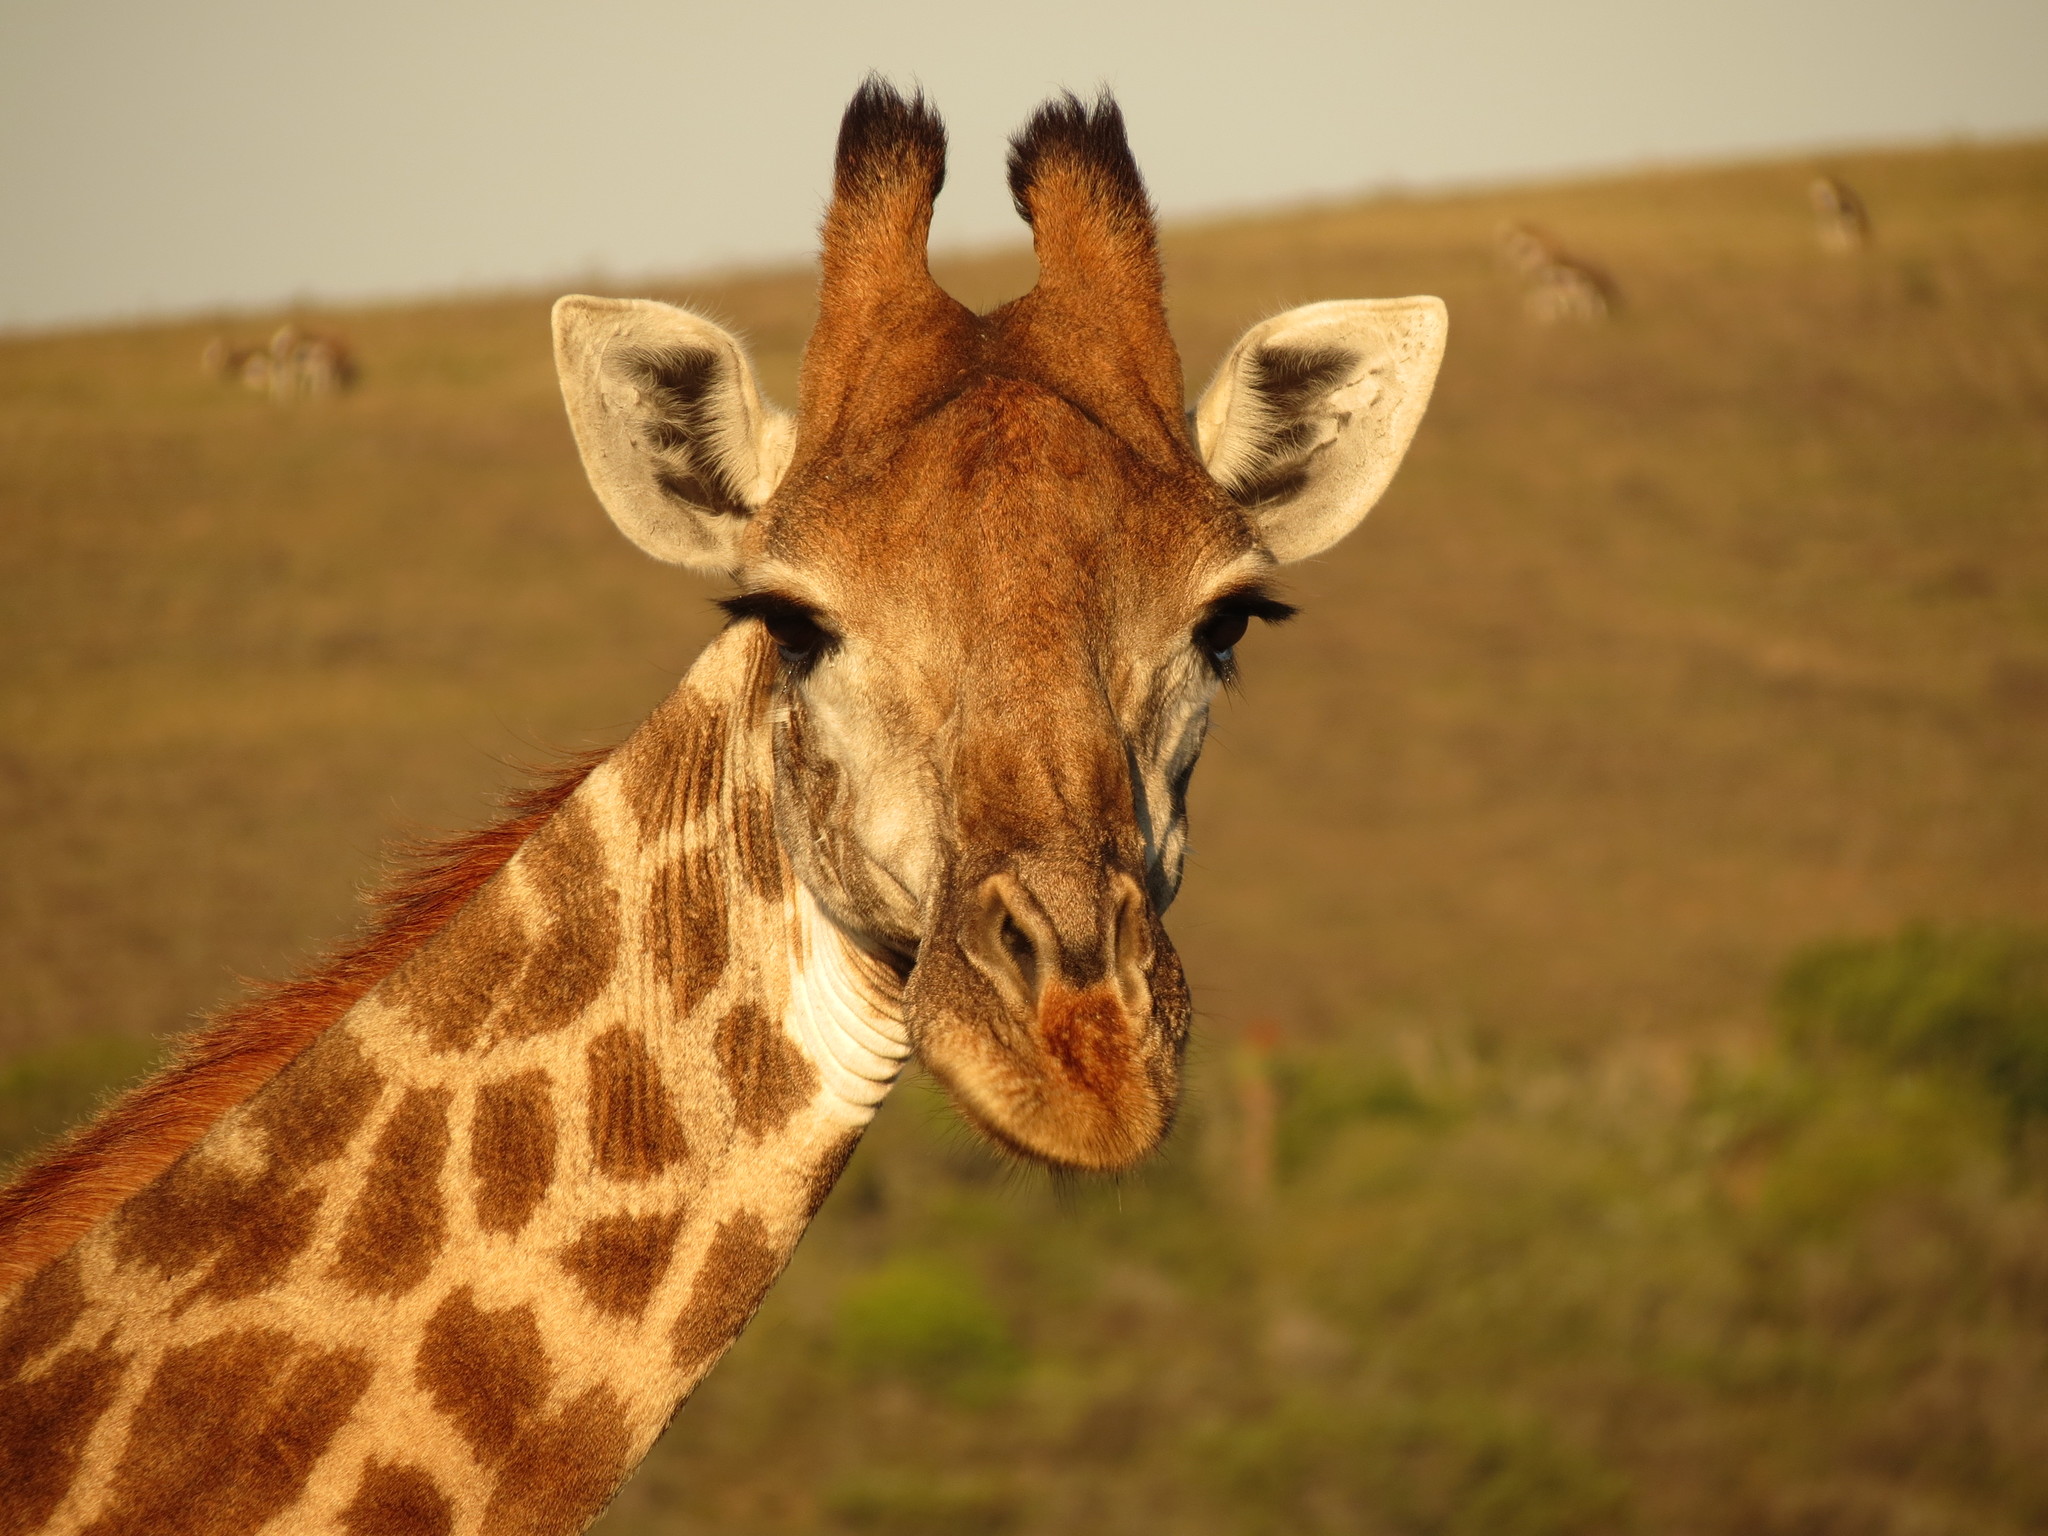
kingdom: Animalia
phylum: Chordata
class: Mammalia
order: Artiodactyla
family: Giraffidae
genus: Giraffa
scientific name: Giraffa giraffa
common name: Southern giraffe
